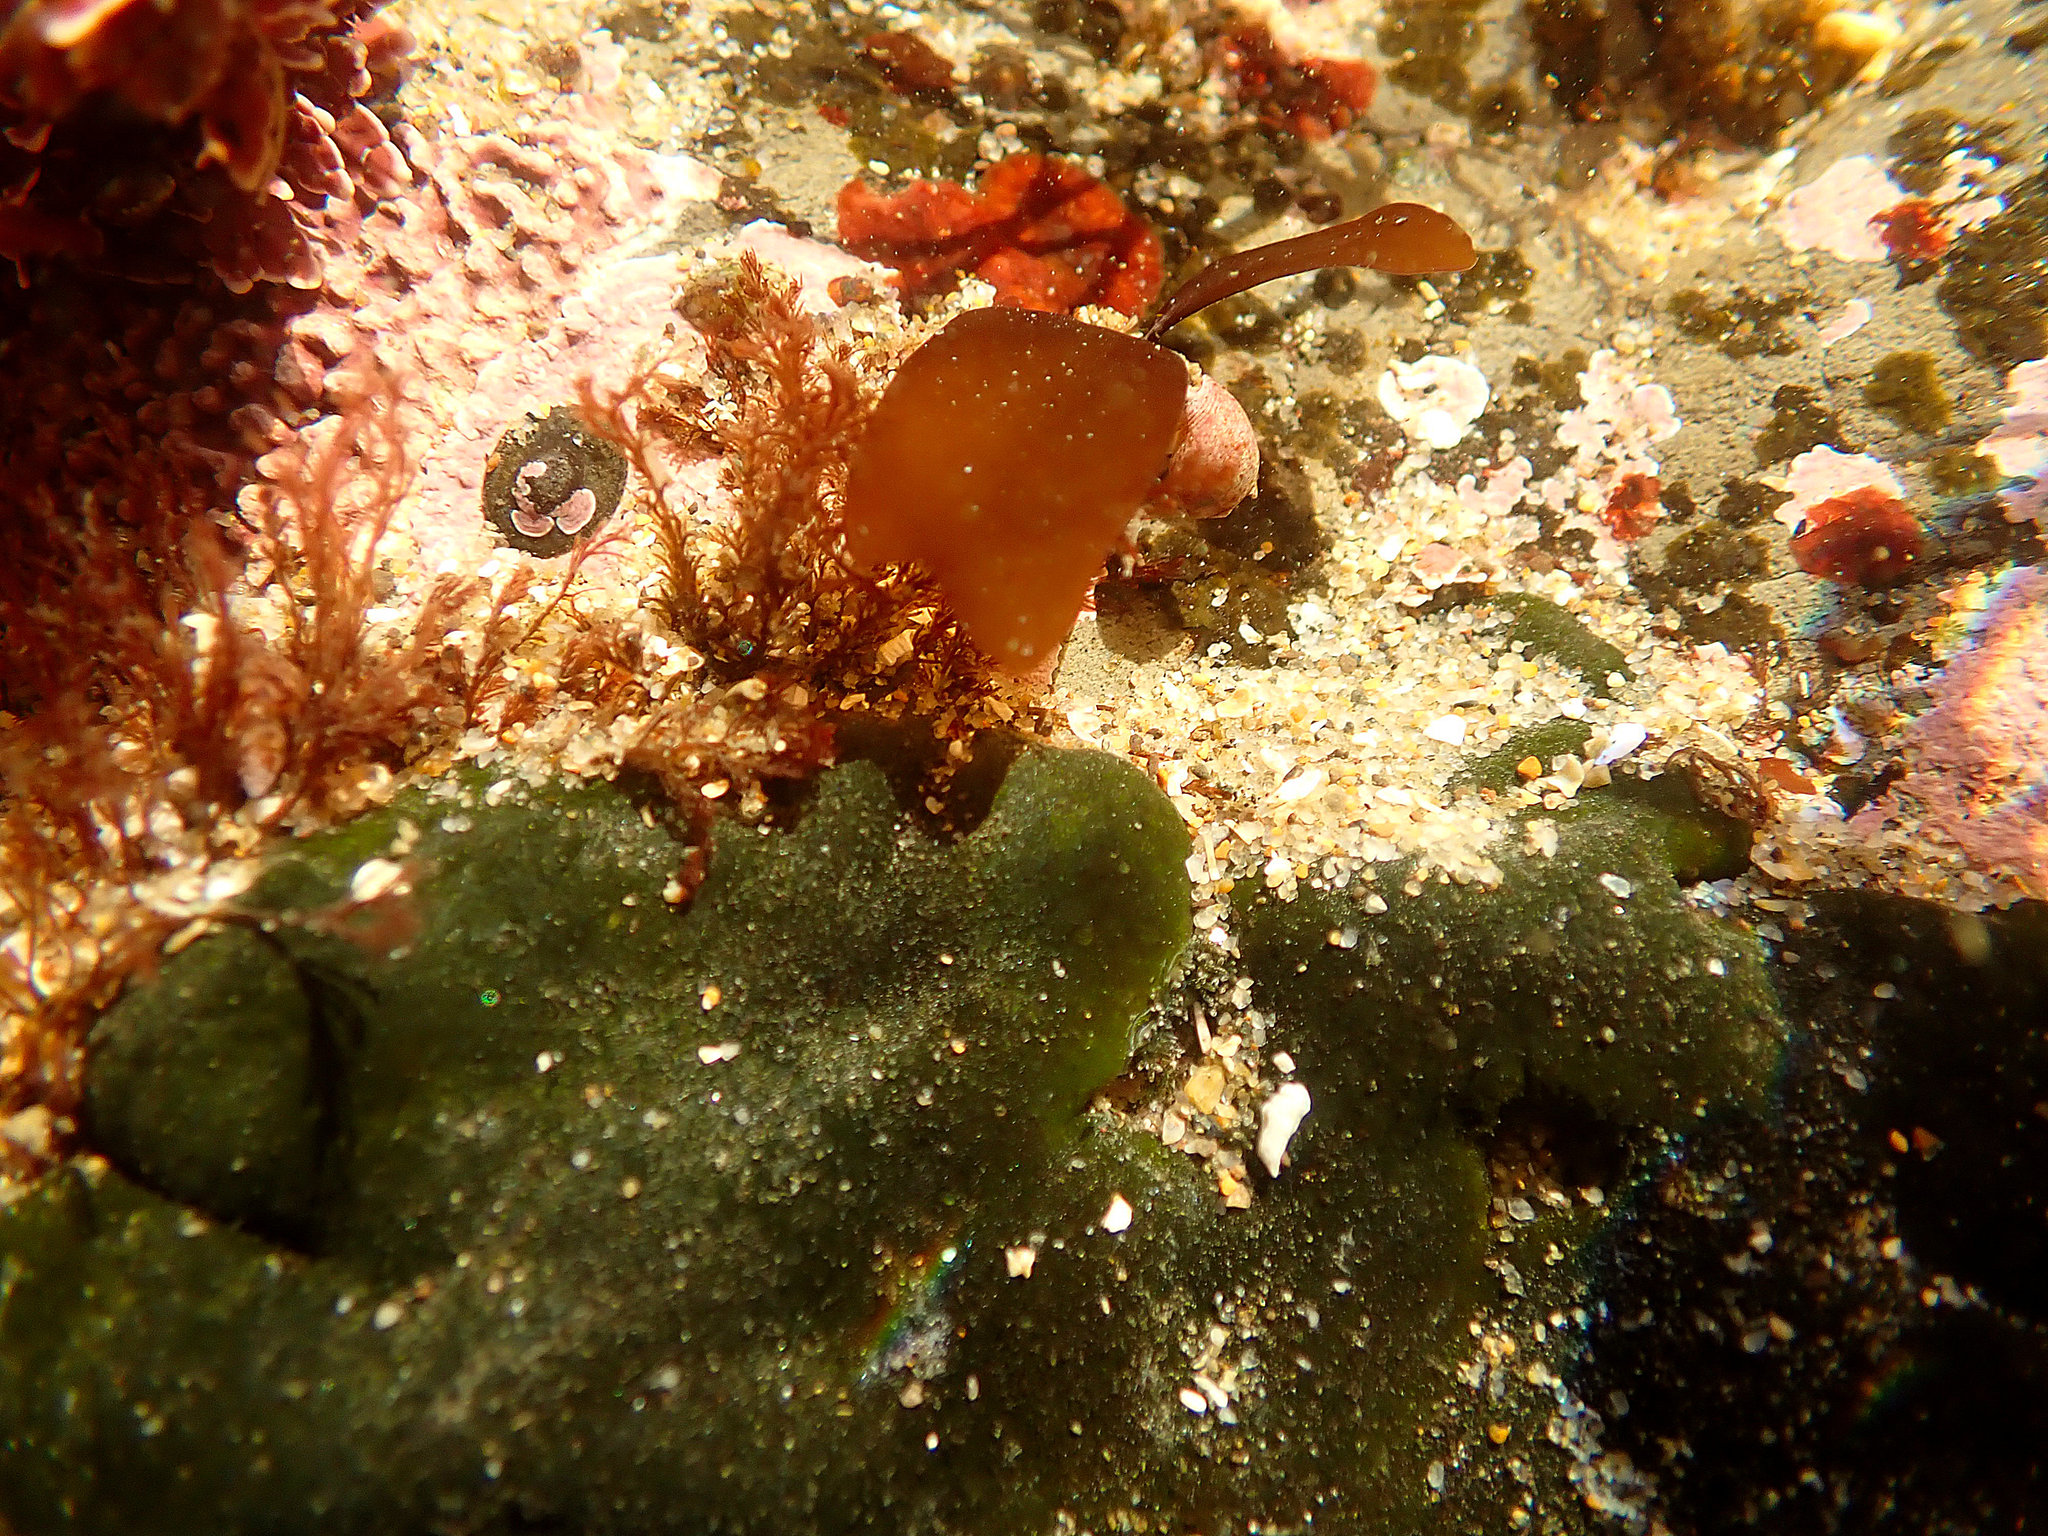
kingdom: Plantae
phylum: Chlorophyta
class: Ulvophyceae
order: Bryopsidales
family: Codiaceae
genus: Codium
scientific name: Codium setchellii
